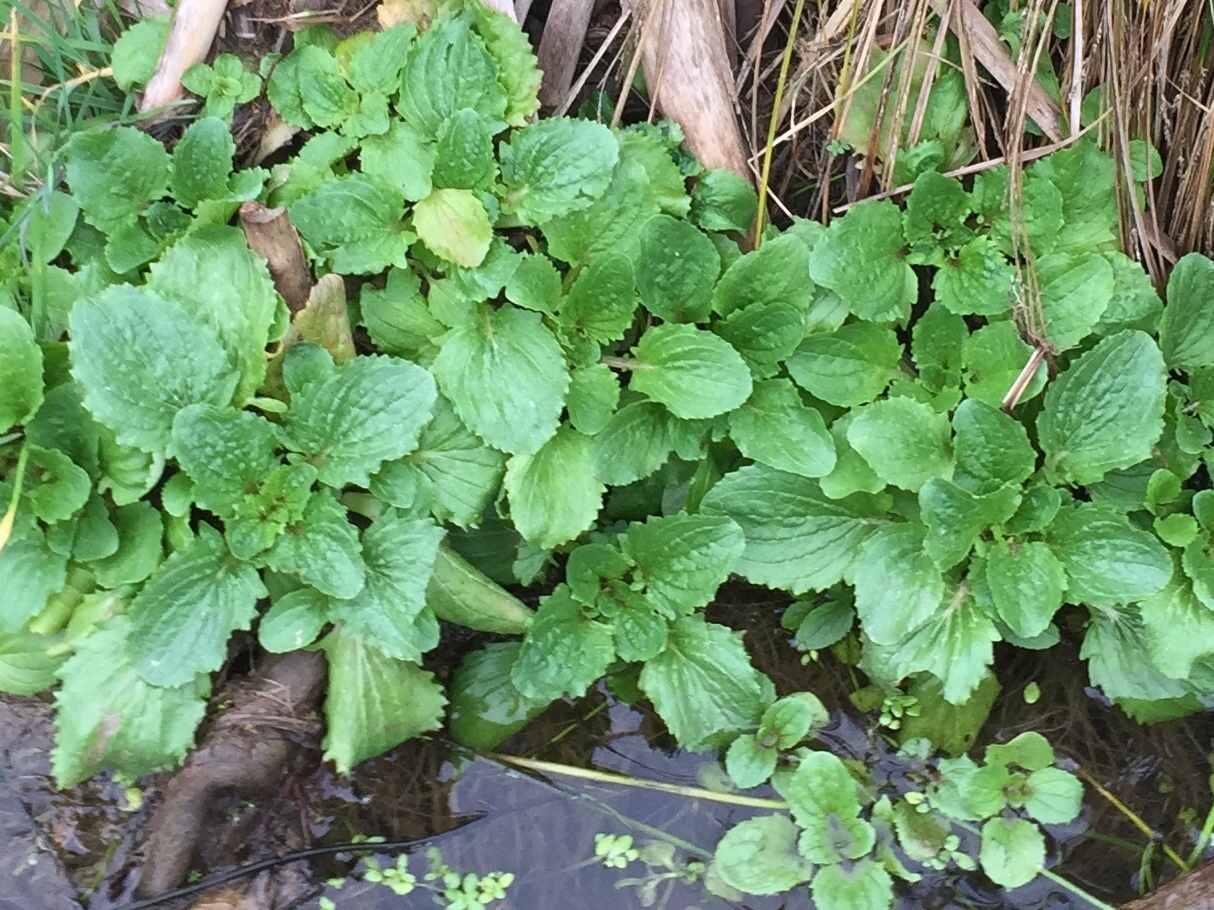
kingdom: Plantae
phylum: Tracheophyta
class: Magnoliopsida
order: Lamiales
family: Phrymaceae
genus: Erythranthe
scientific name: Erythranthe guttata
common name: Monkeyflower
